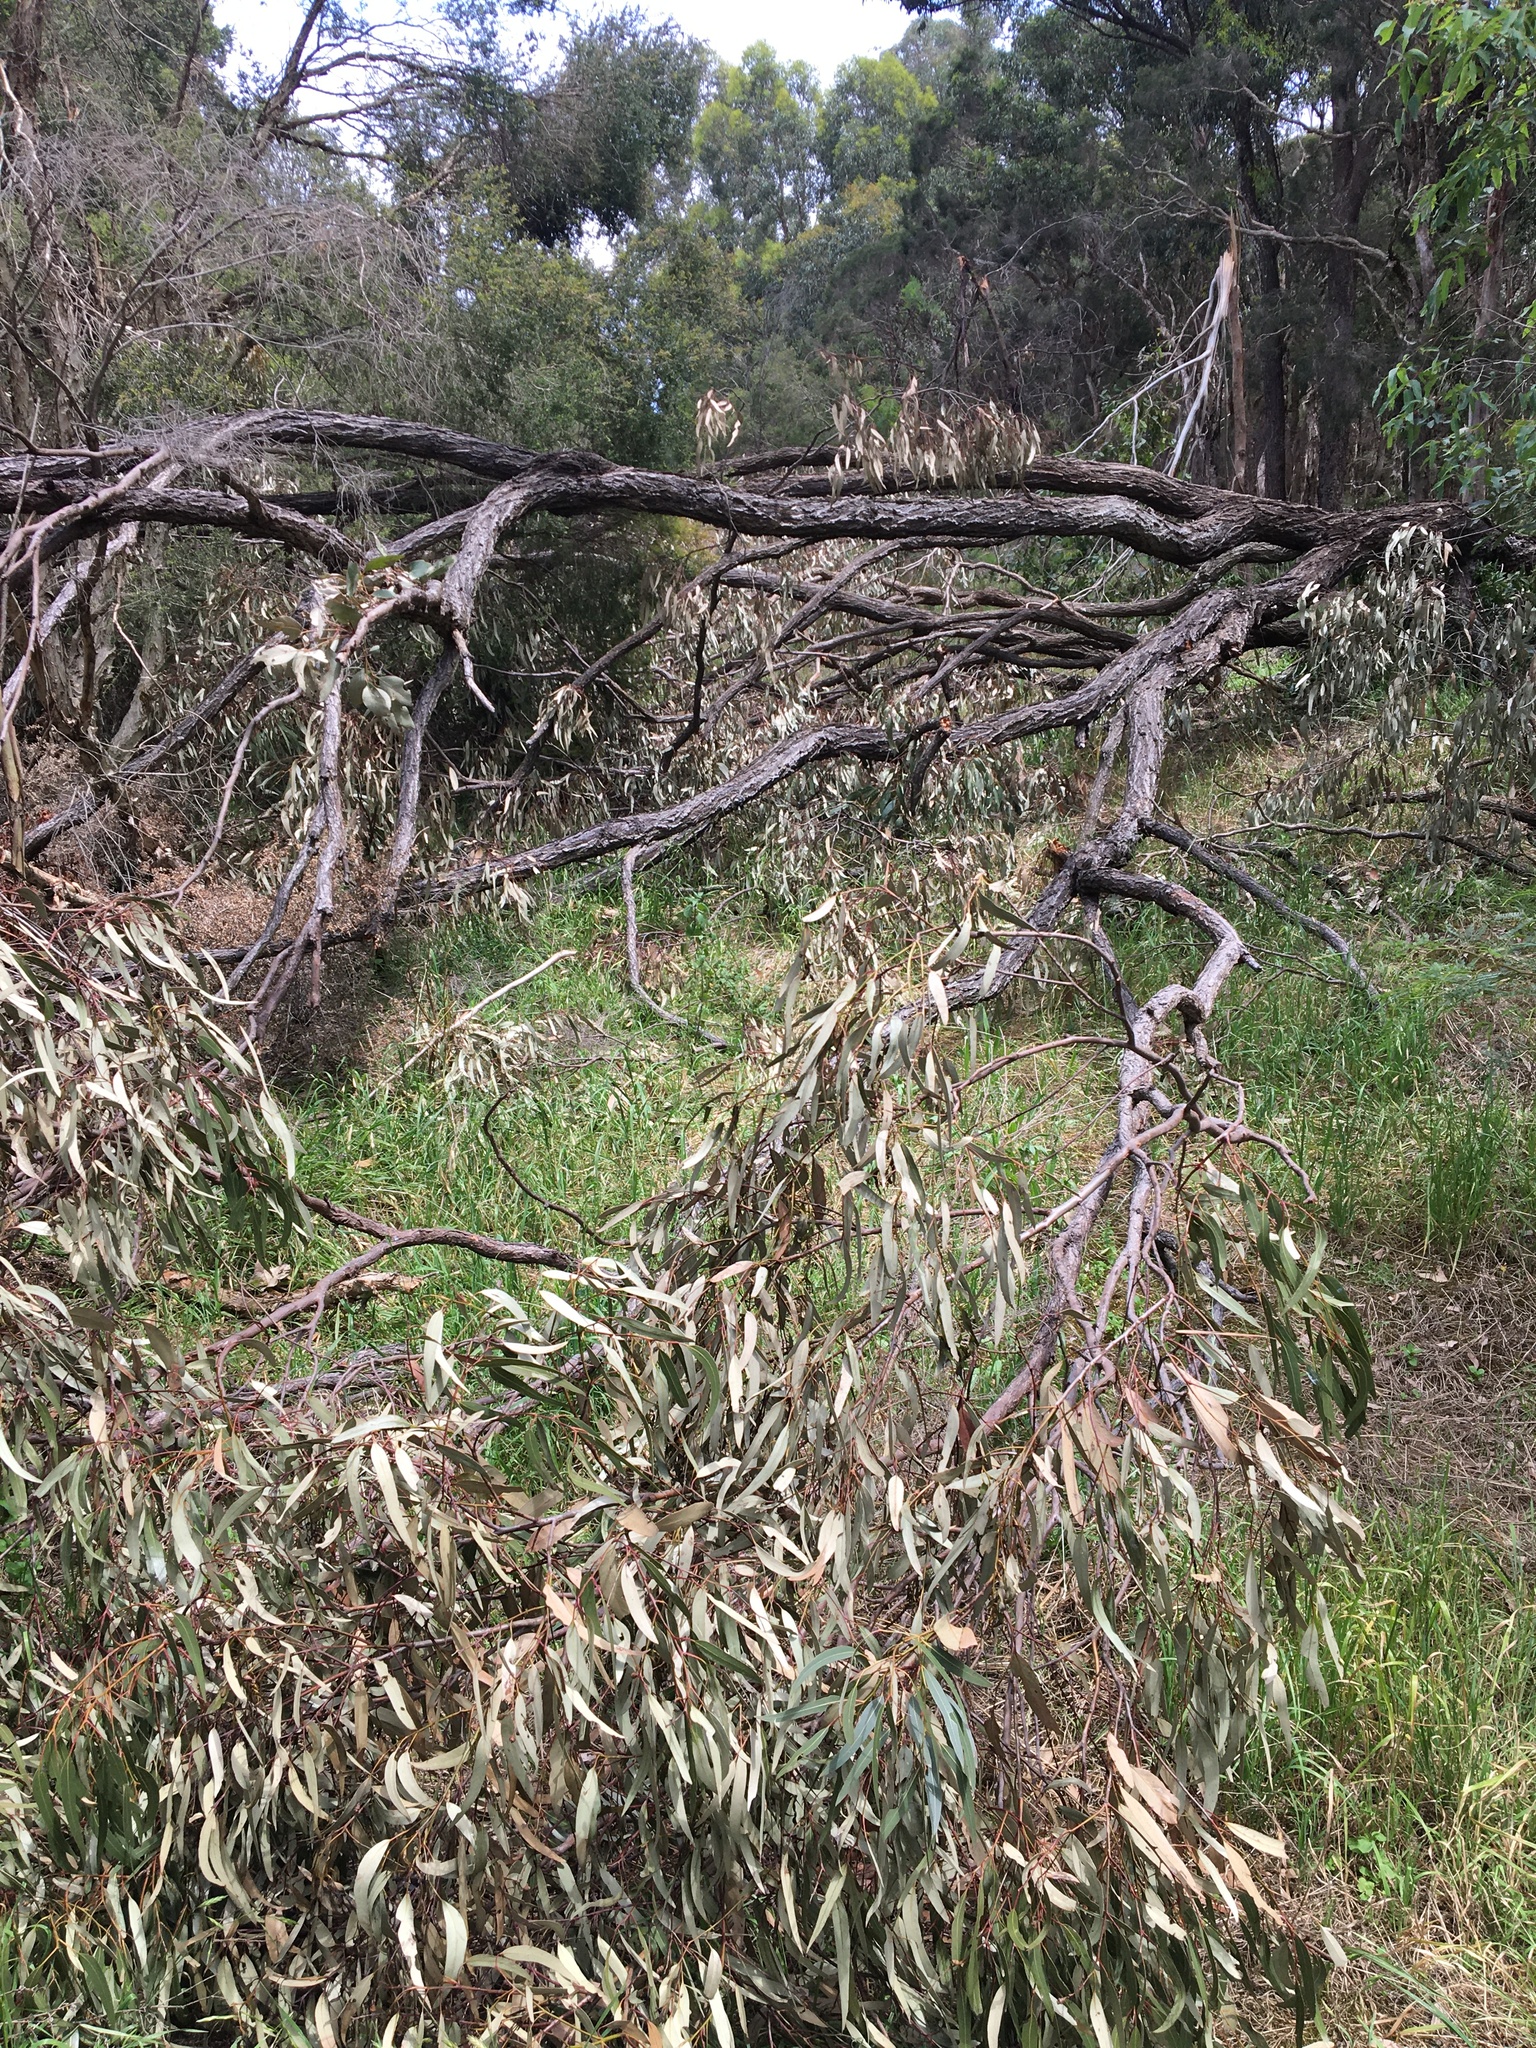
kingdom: Plantae
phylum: Tracheophyta
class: Magnoliopsida
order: Myrtales
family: Myrtaceae
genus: Eucalyptus
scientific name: Eucalyptus fibrosa
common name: Red ironbark
